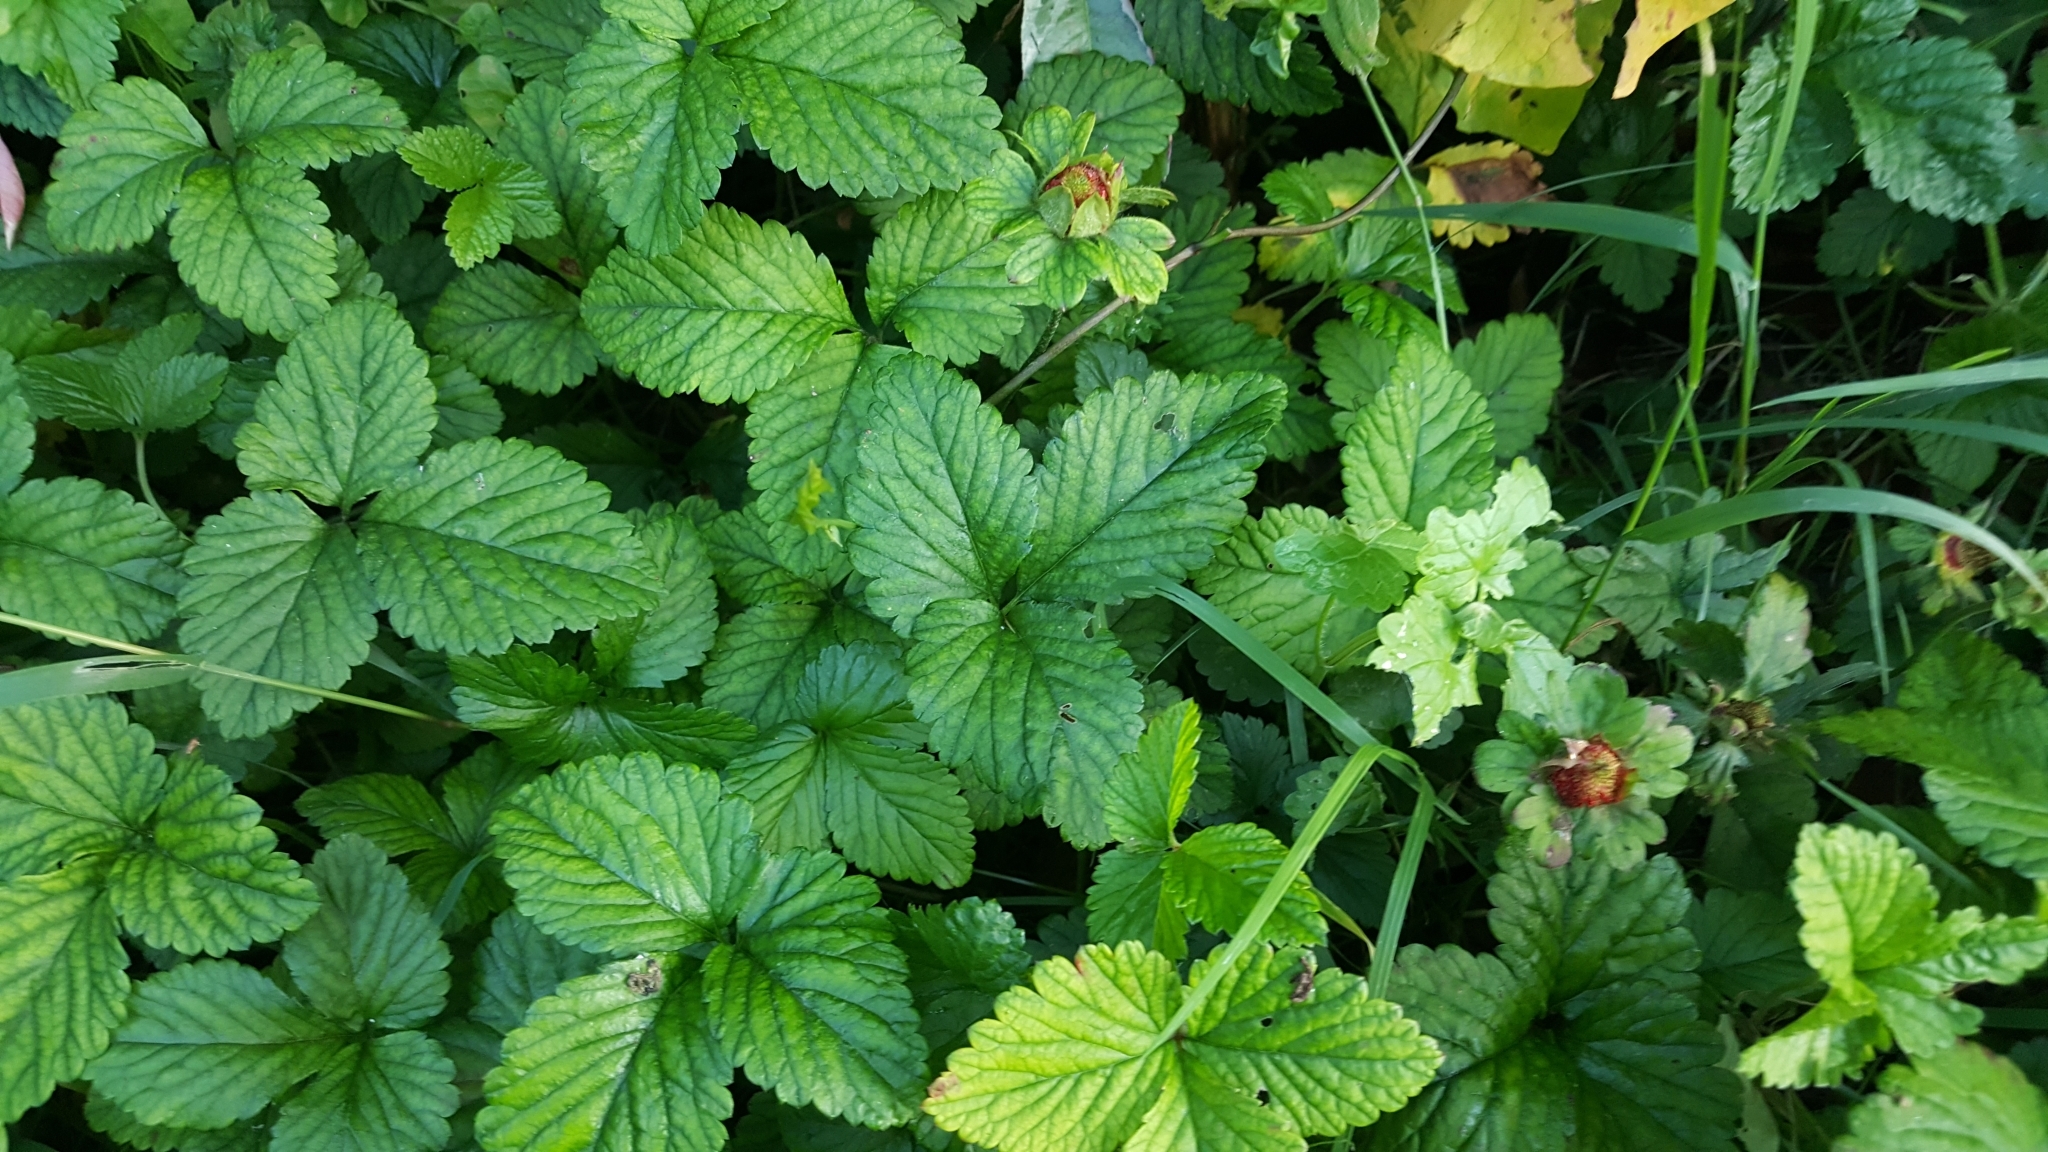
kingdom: Plantae
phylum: Tracheophyta
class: Magnoliopsida
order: Rosales
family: Rosaceae
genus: Potentilla
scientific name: Potentilla indica
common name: Yellow-flowered strawberry
